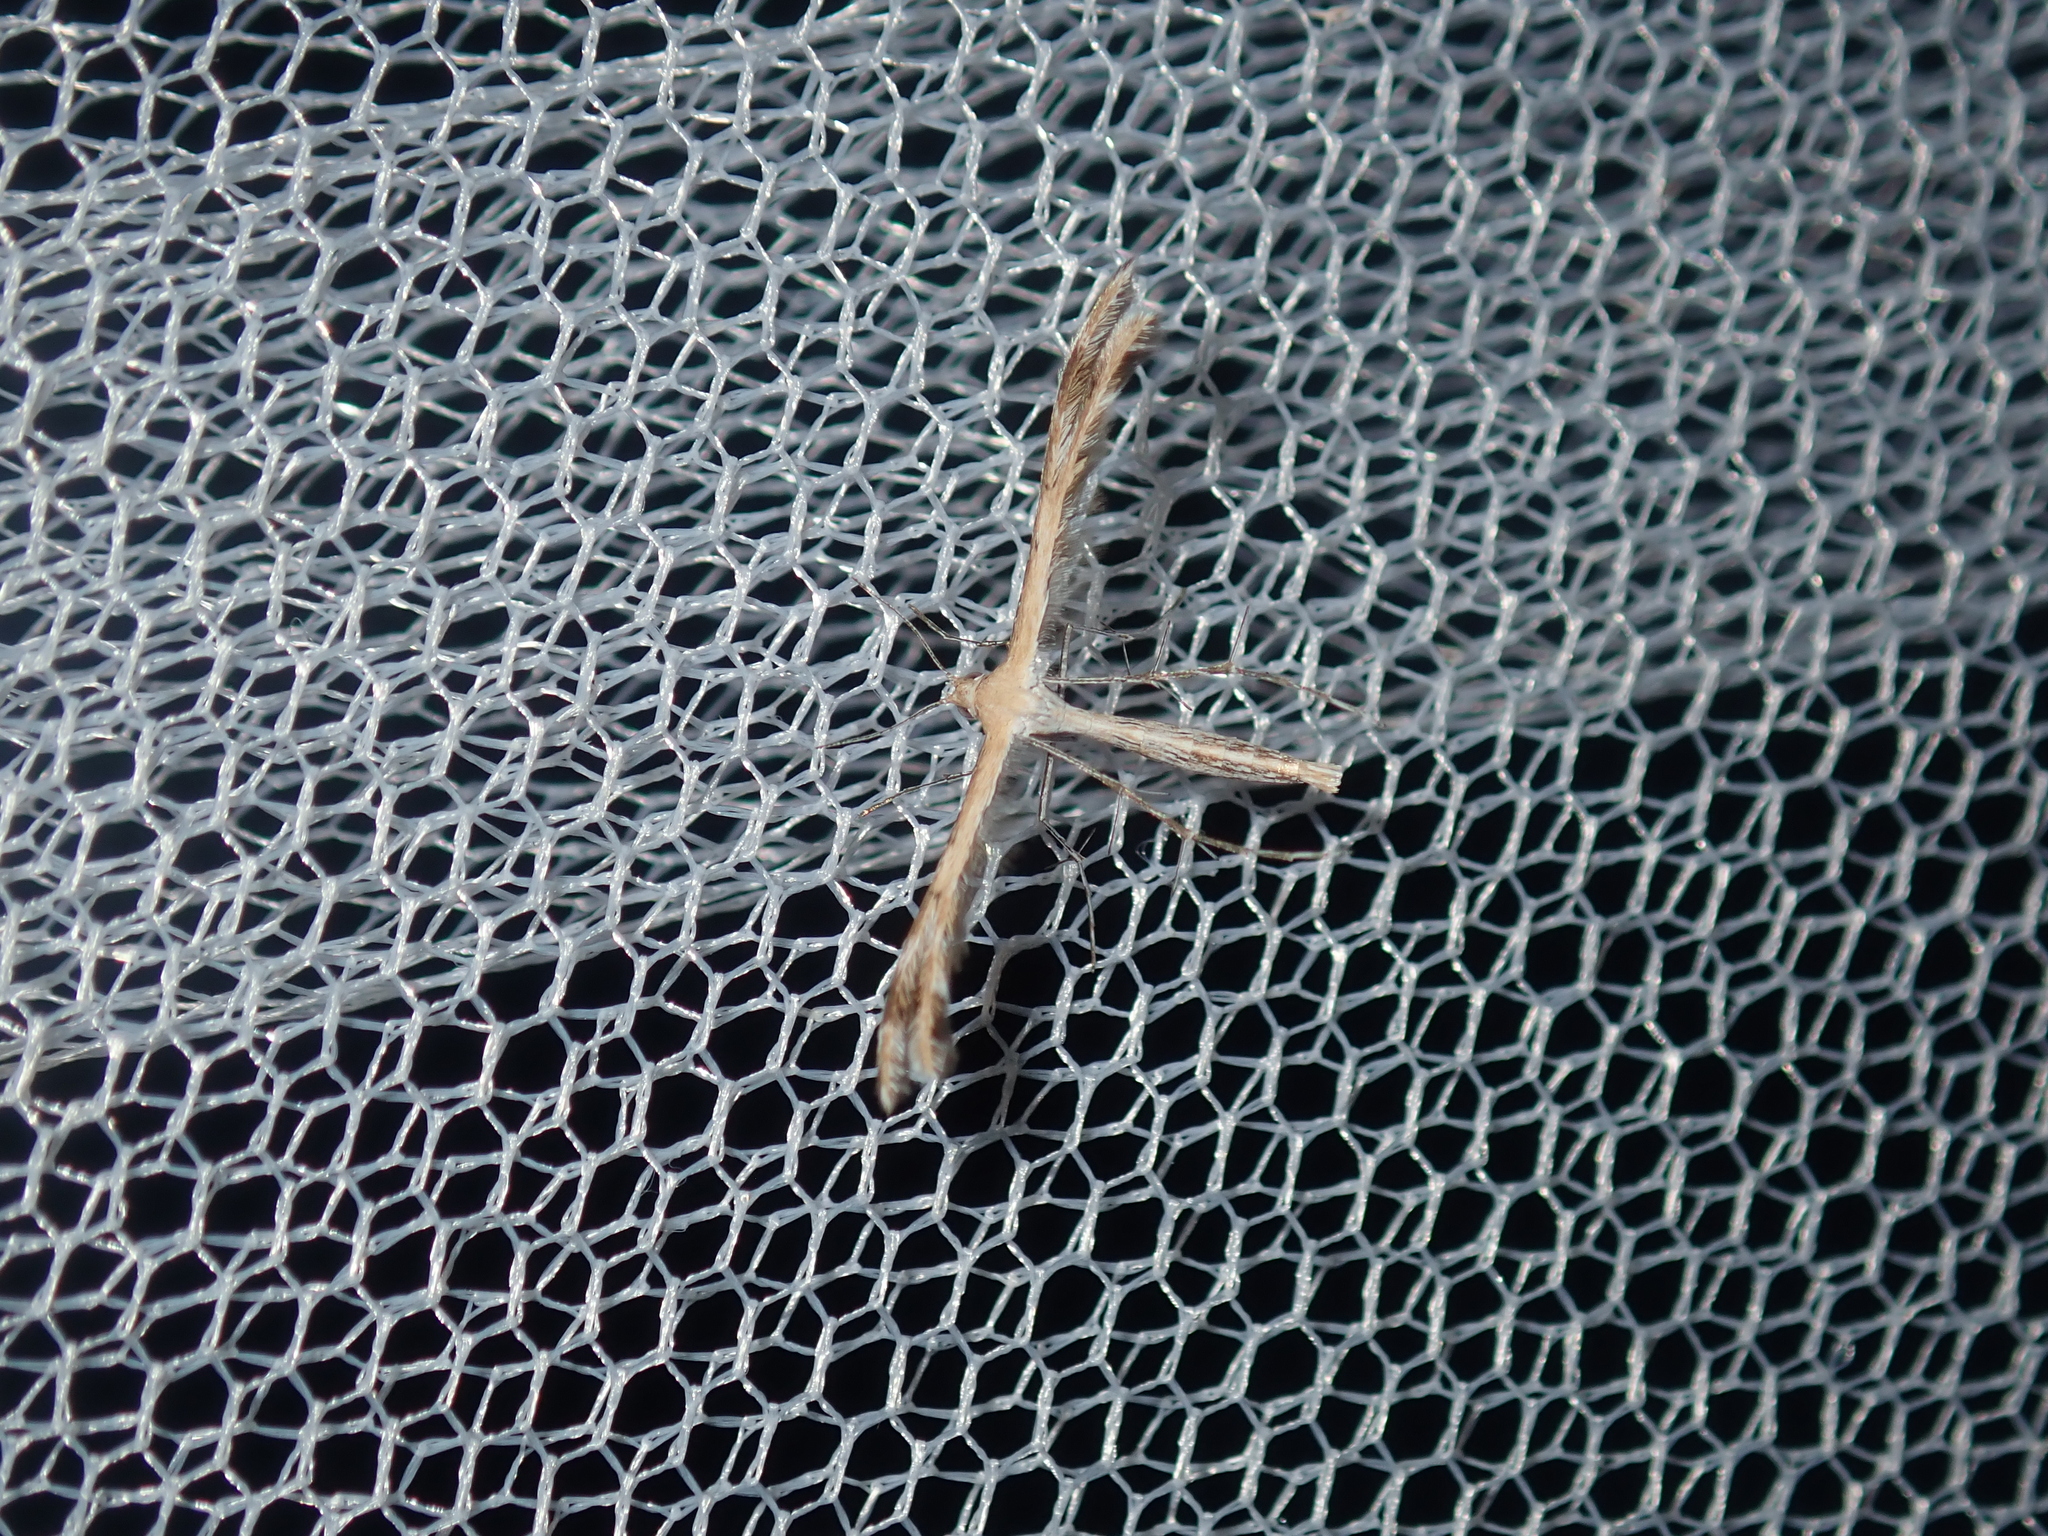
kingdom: Animalia
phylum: Arthropoda
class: Insecta
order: Lepidoptera
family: Pterophoridae
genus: Megalorhipida
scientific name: Megalorhipida leucodactylus
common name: Plume moth
